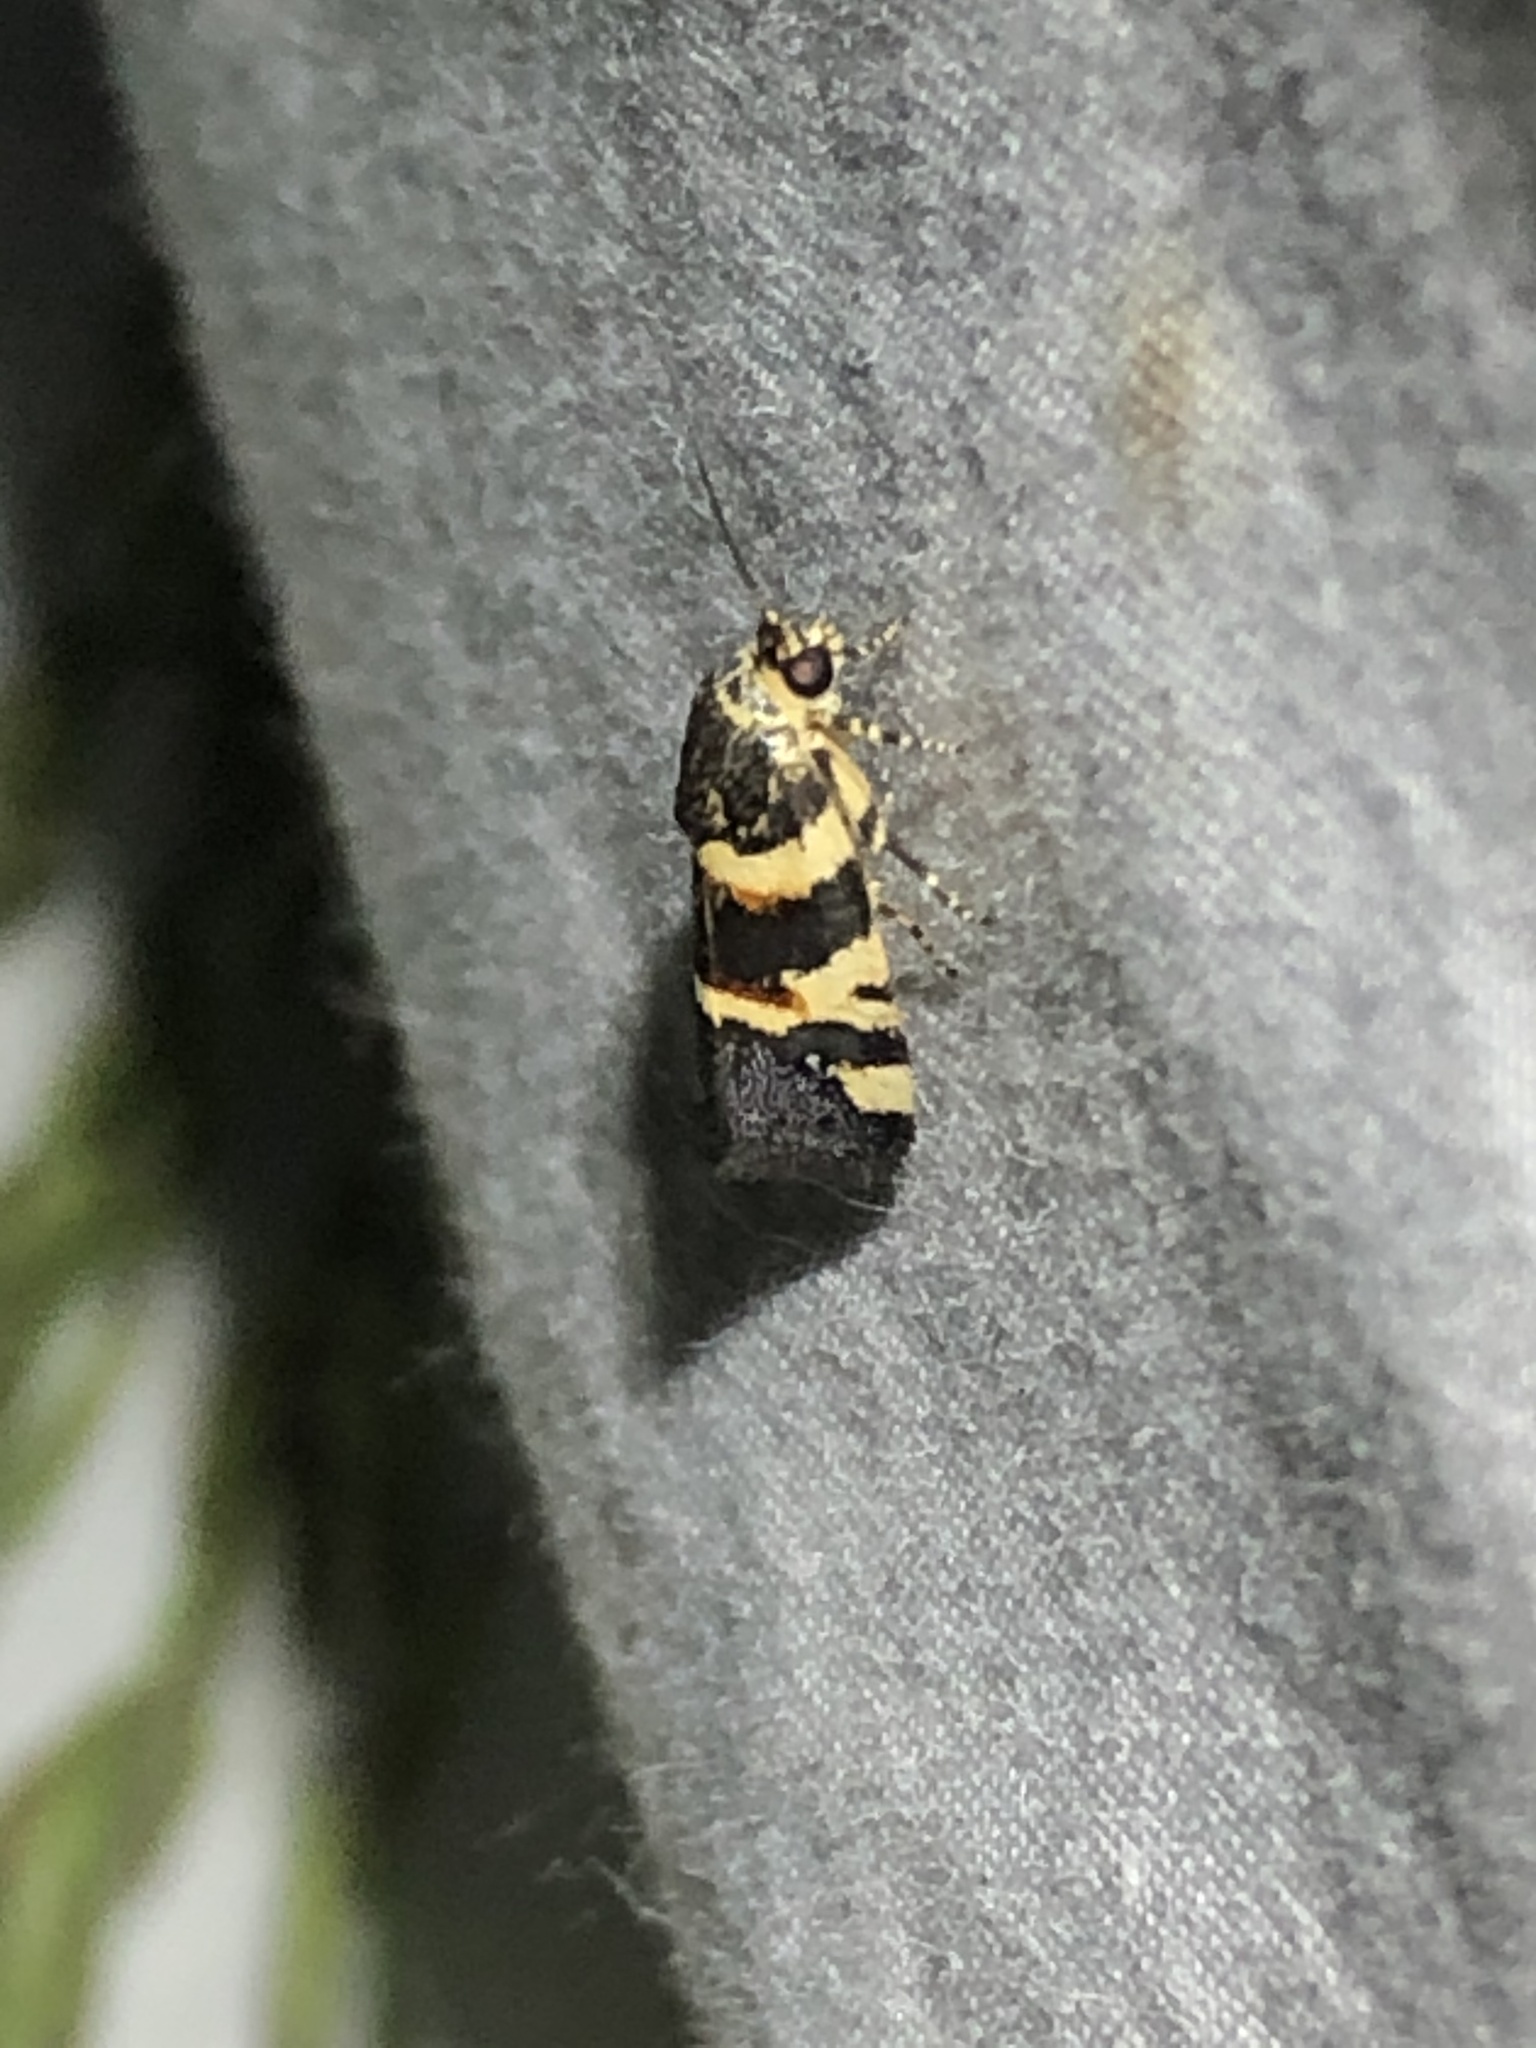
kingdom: Animalia
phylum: Arthropoda
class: Insecta
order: Lepidoptera
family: Noctuidae
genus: Spragueia
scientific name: Spragueia funeralis
